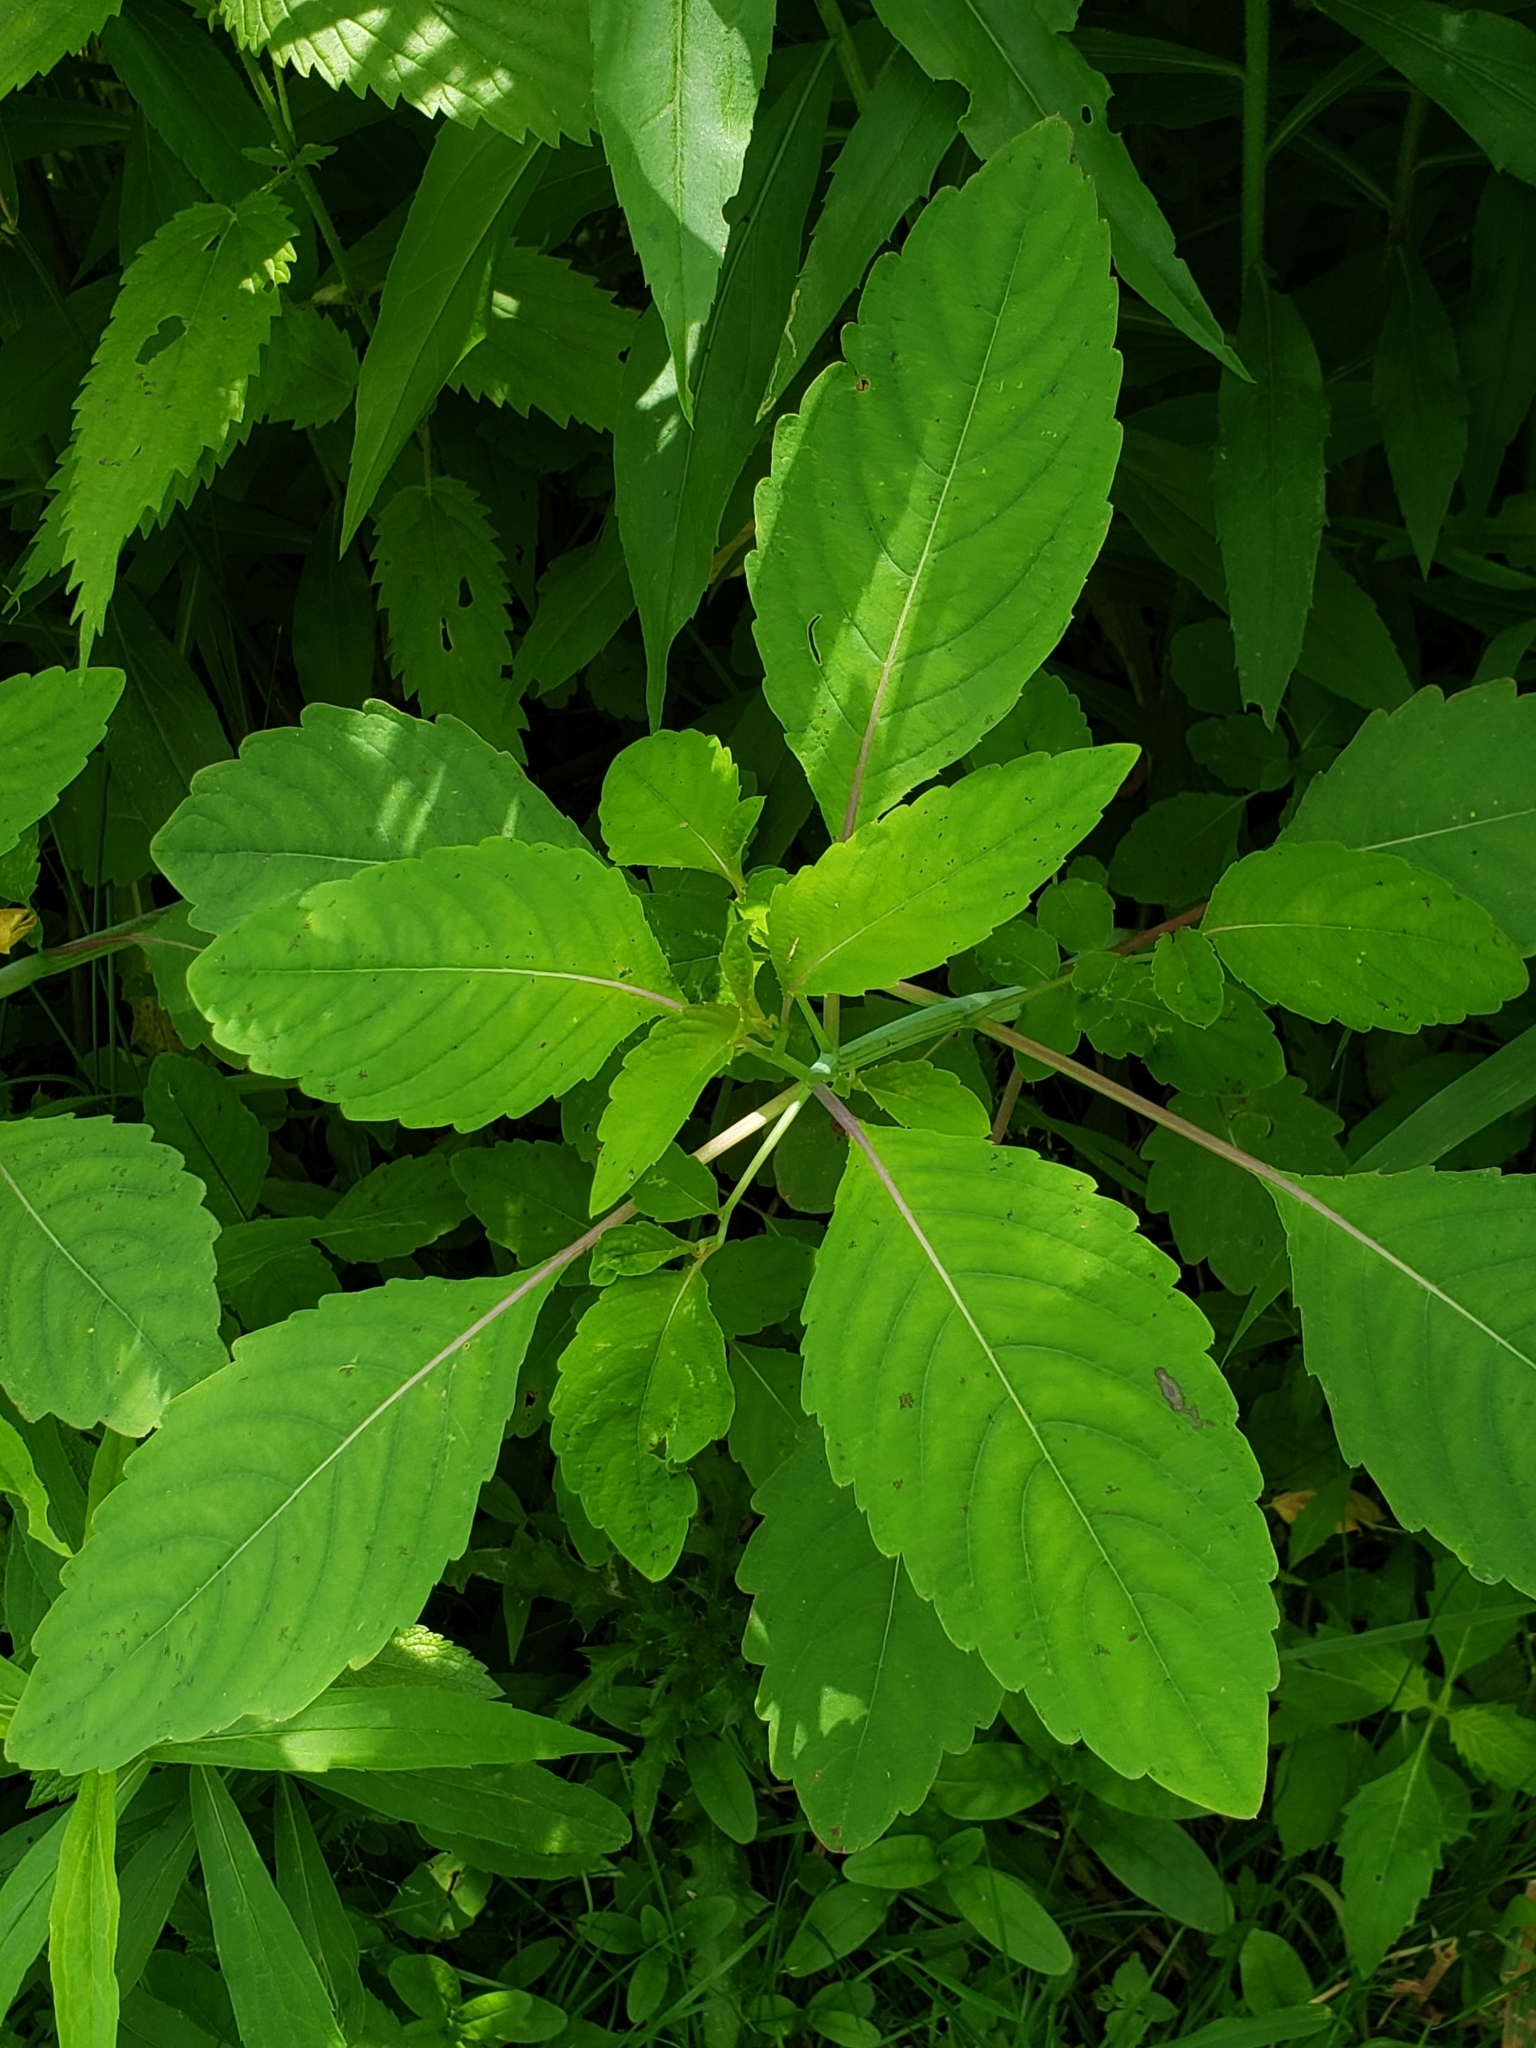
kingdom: Plantae
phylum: Tracheophyta
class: Magnoliopsida
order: Ericales
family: Balsaminaceae
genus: Impatiens
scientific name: Impatiens pallida
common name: Pale snapweed
